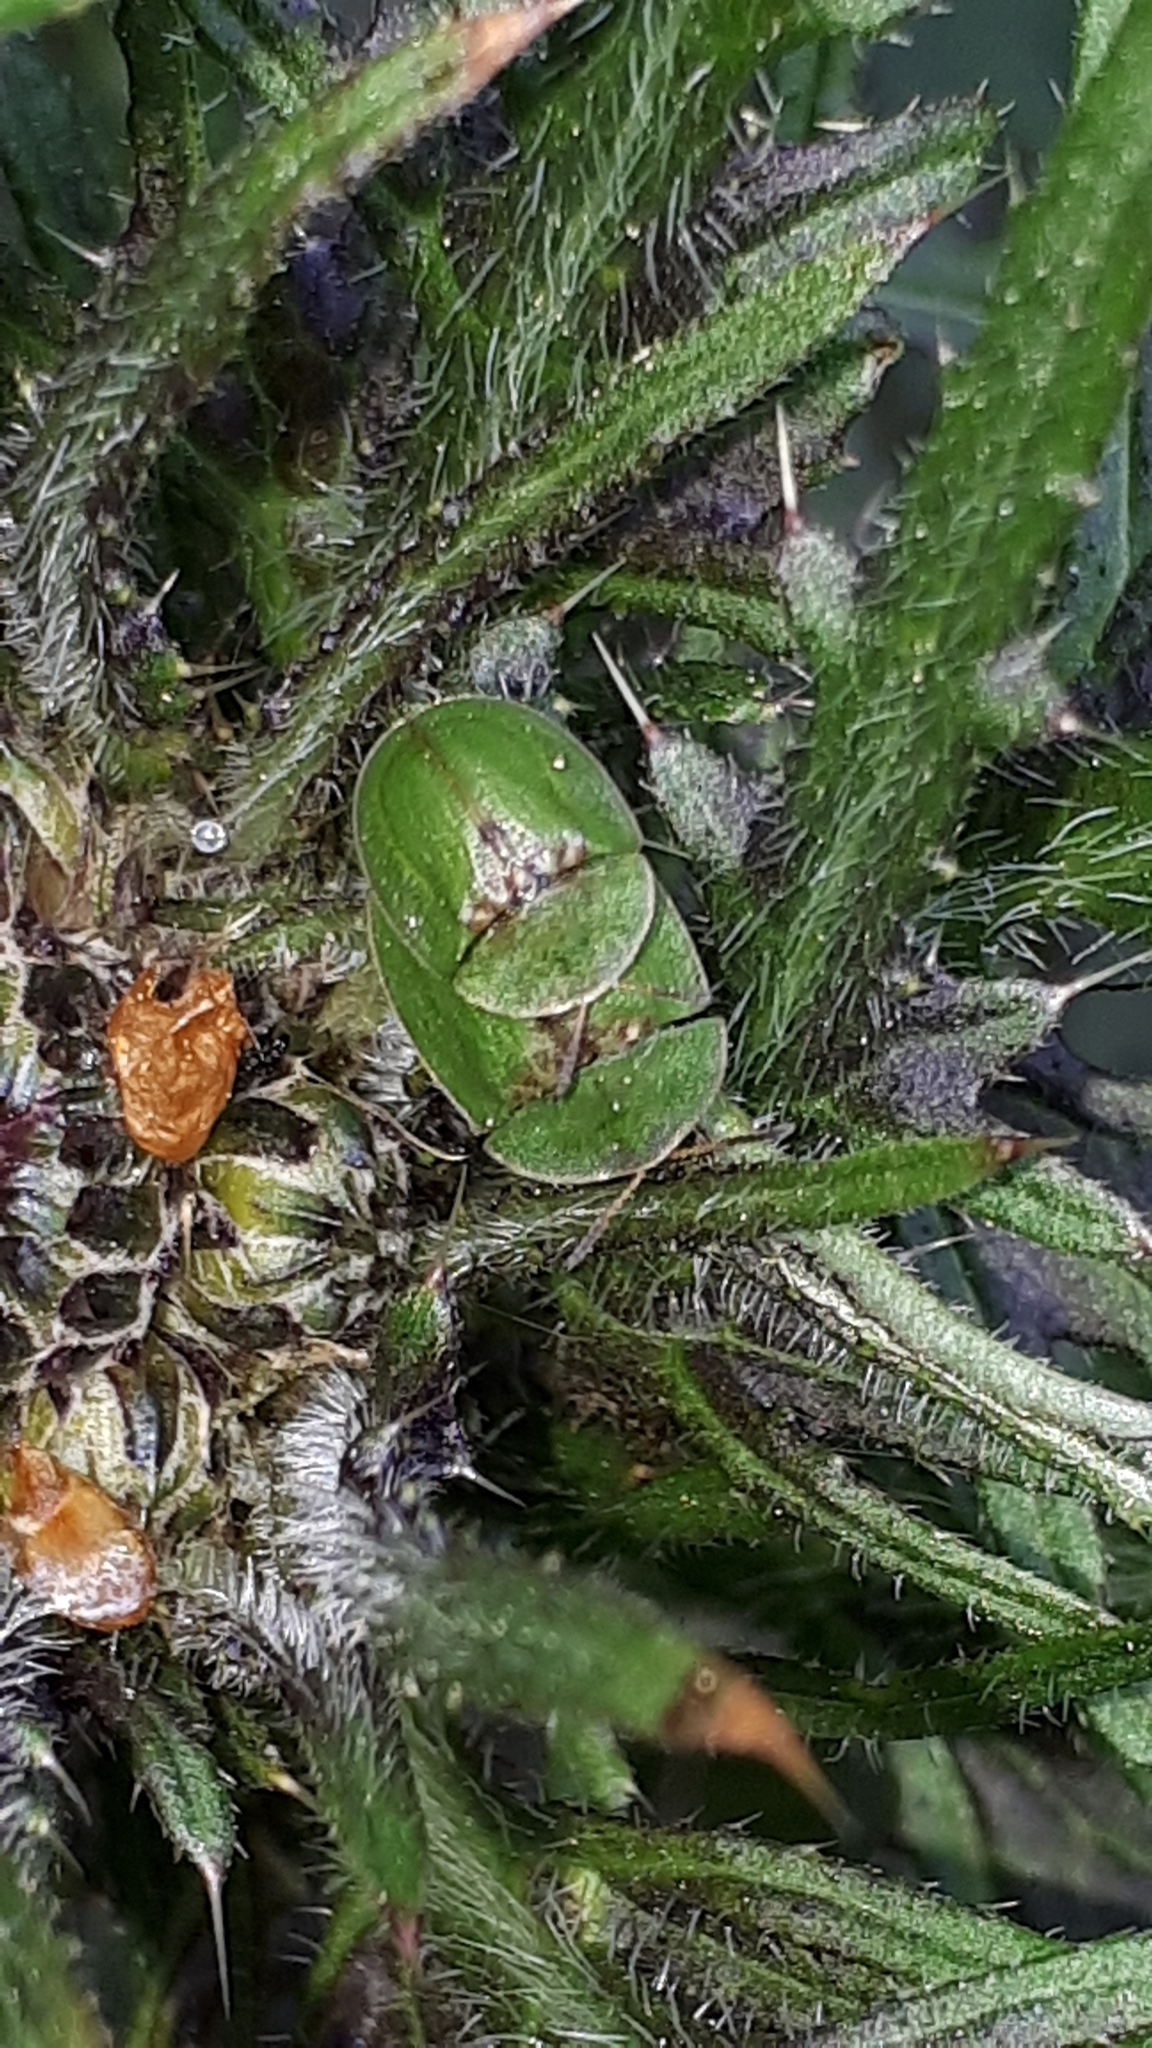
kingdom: Animalia
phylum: Arthropoda
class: Insecta
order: Coleoptera
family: Chrysomelidae
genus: Cassida
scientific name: Cassida rubiginosa
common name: Thistle tortoise beetle
